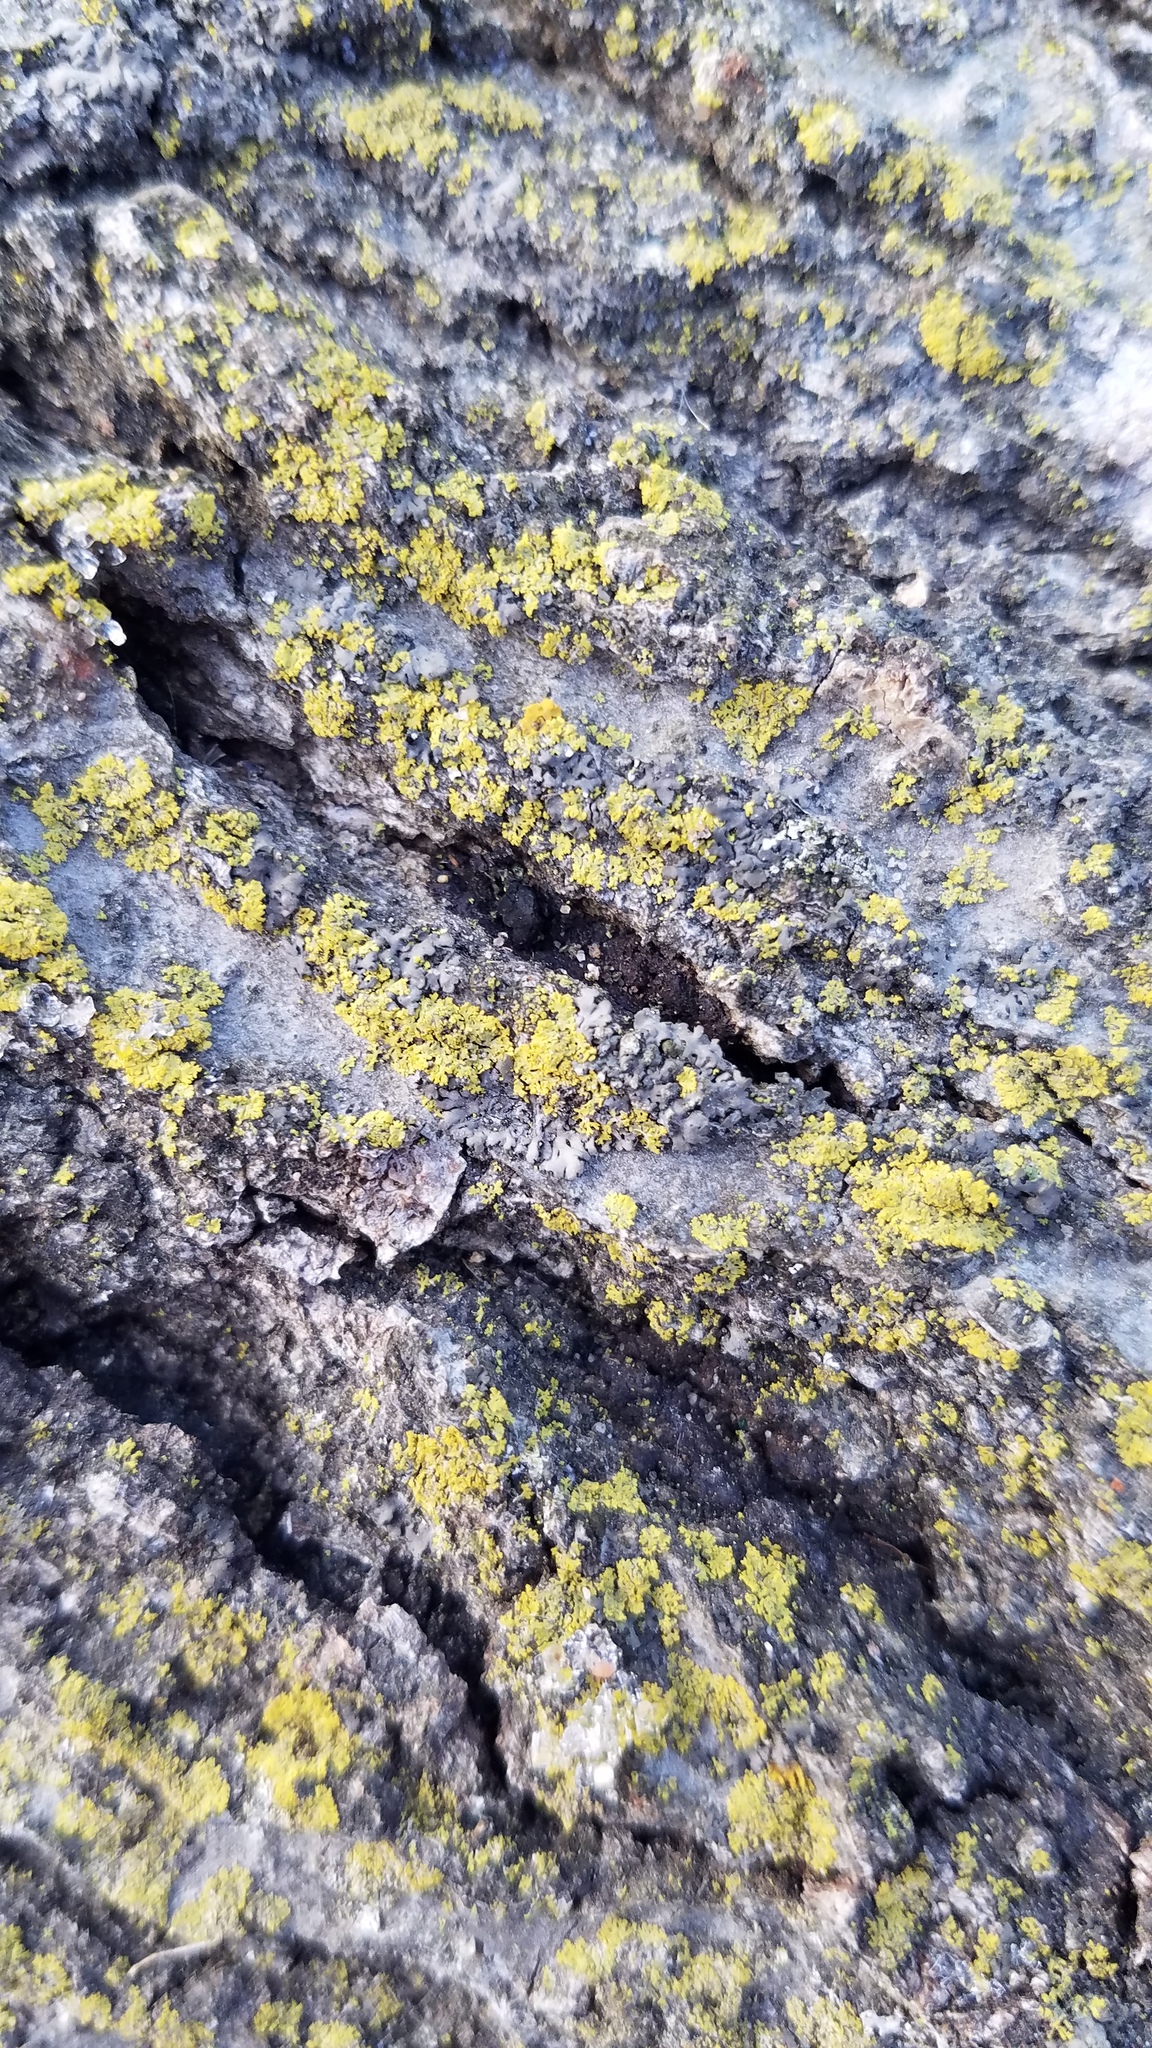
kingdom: Fungi
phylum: Ascomycota
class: Candelariomycetes
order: Candelariales
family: Candelariaceae
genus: Candelaria
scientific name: Candelaria concolor
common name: Candleflame lichen
